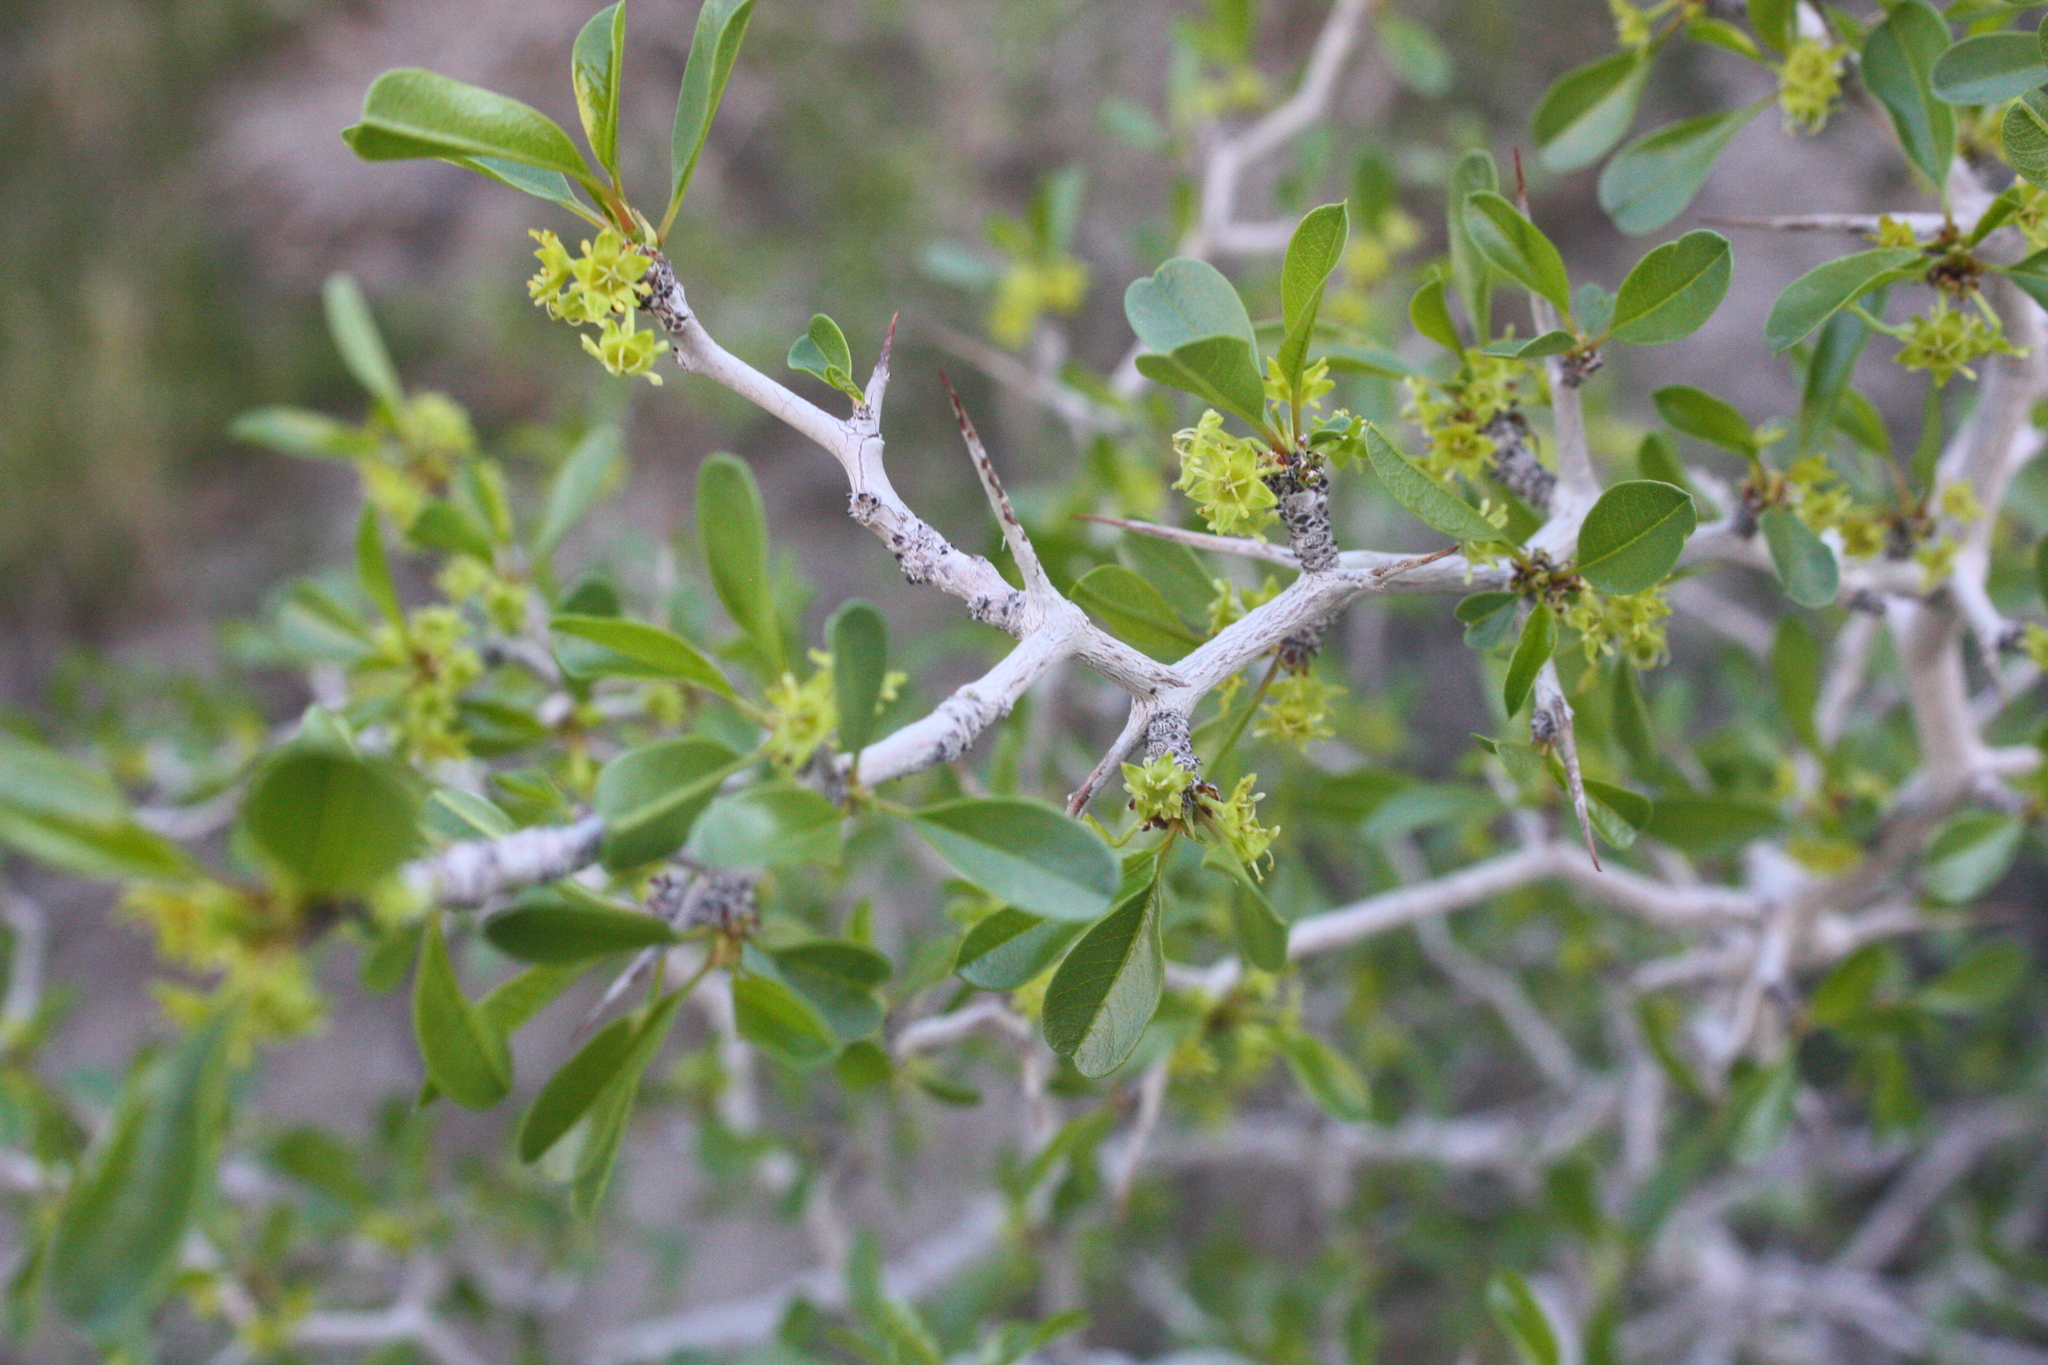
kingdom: Plantae
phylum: Tracheophyta
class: Magnoliopsida
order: Rosales
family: Rhamnaceae
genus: Pseudoziziphus
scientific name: Pseudoziziphus parryi
